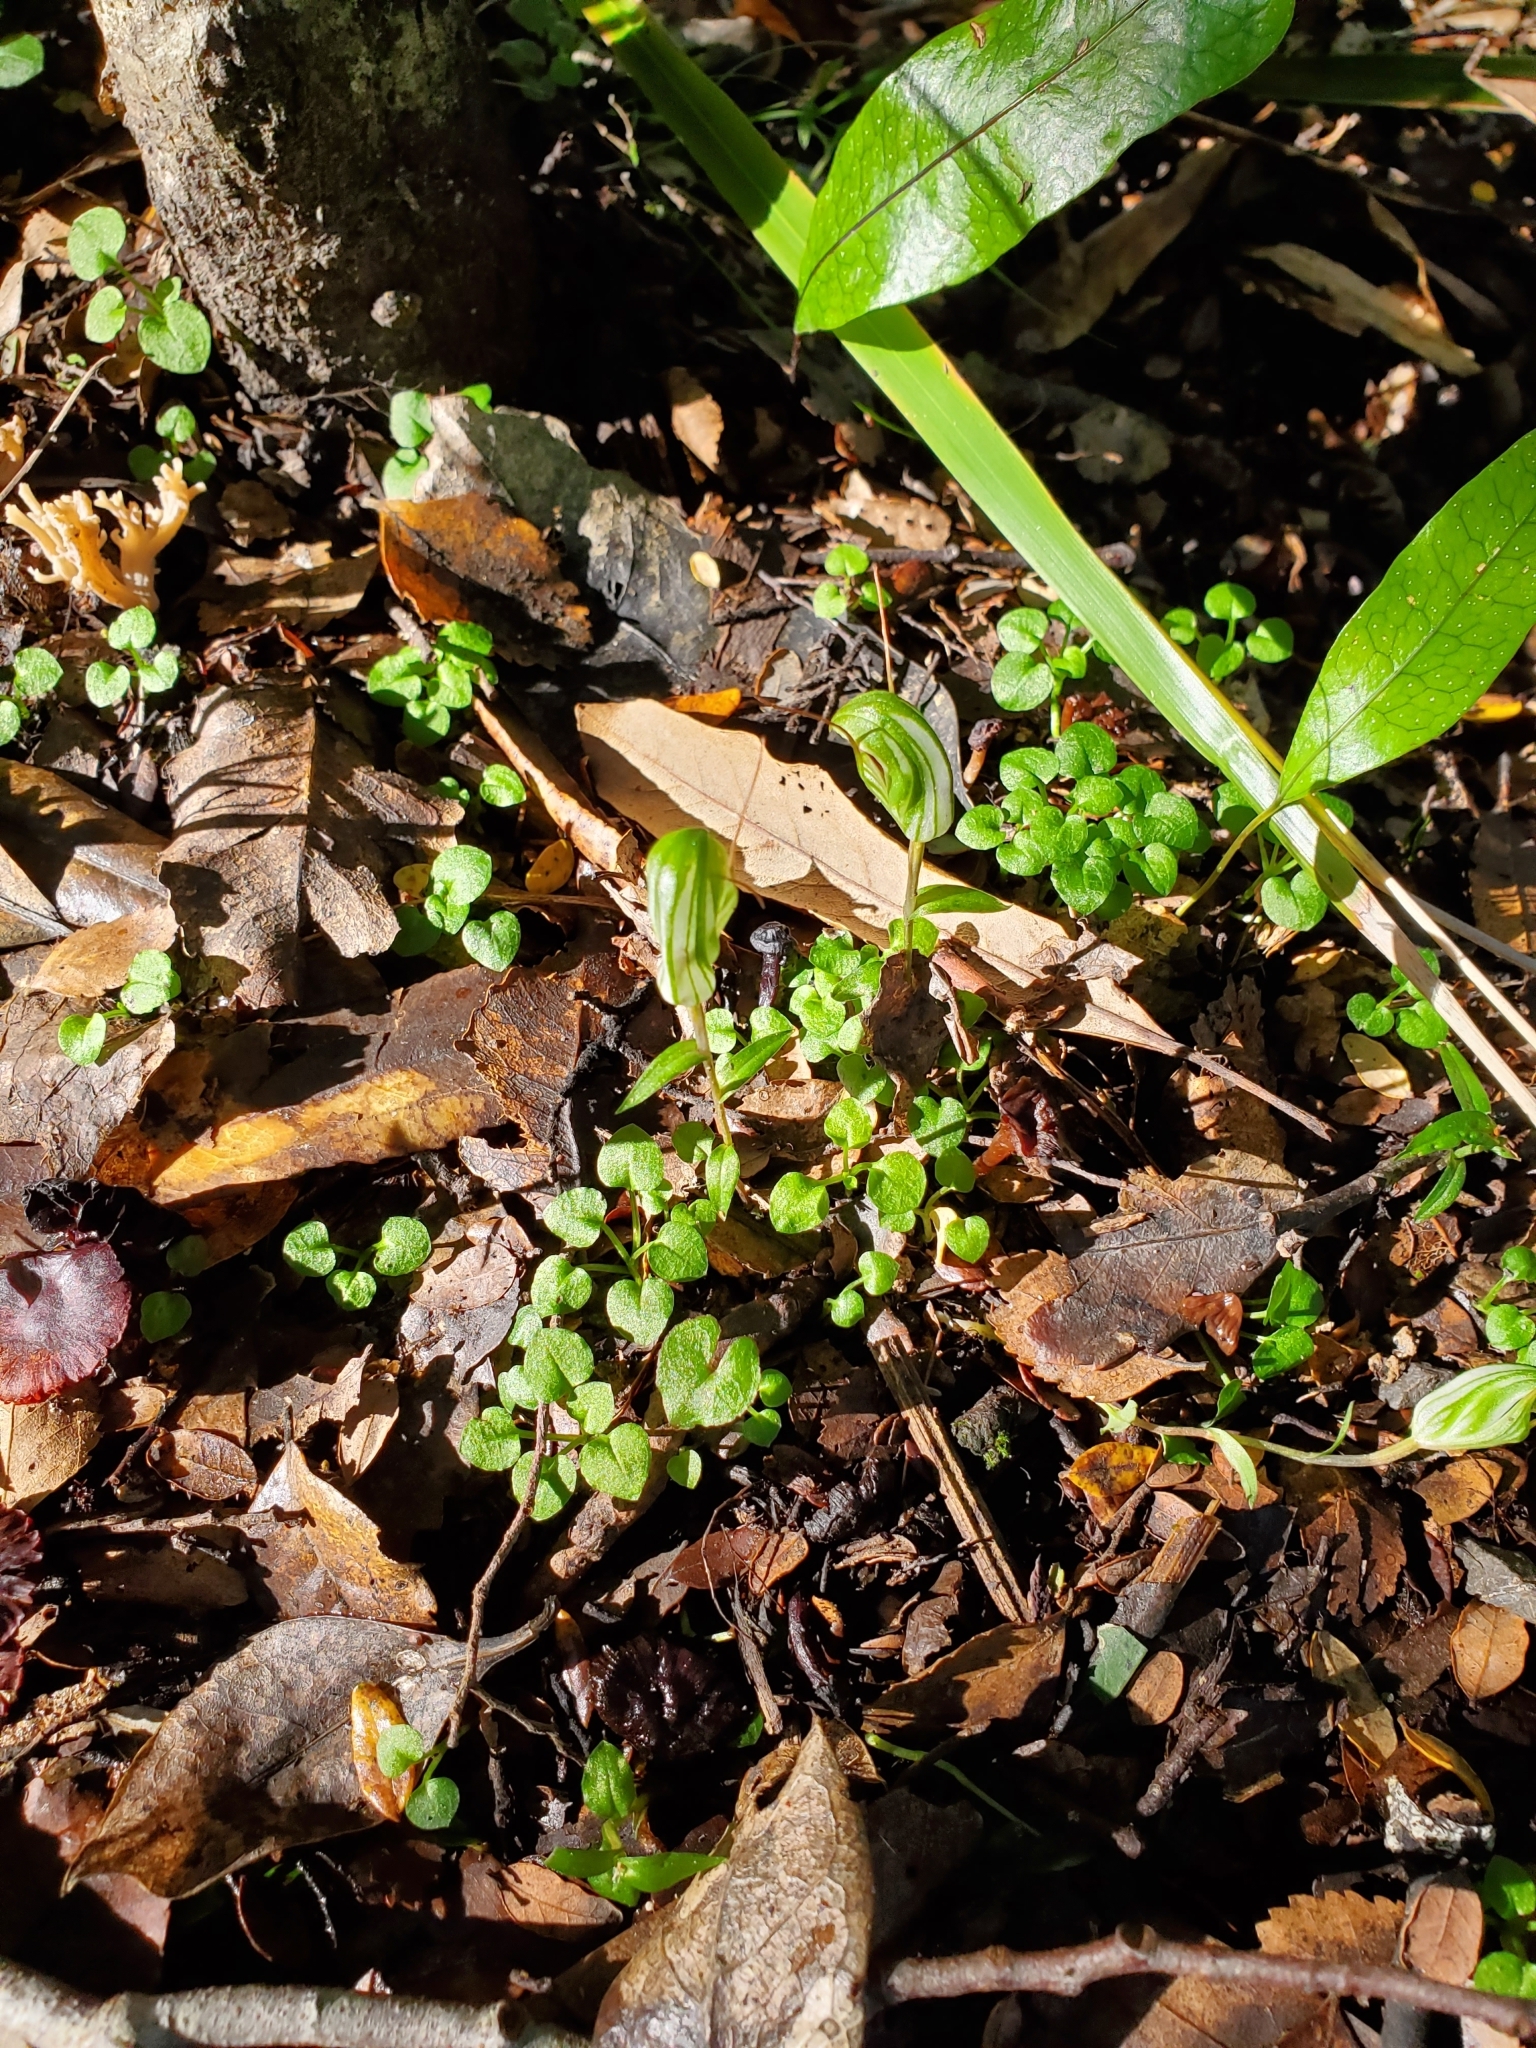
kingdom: Plantae
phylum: Tracheophyta
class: Liliopsida
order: Asparagales
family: Orchidaceae
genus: Pterostylis
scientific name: Pterostylis alobula
